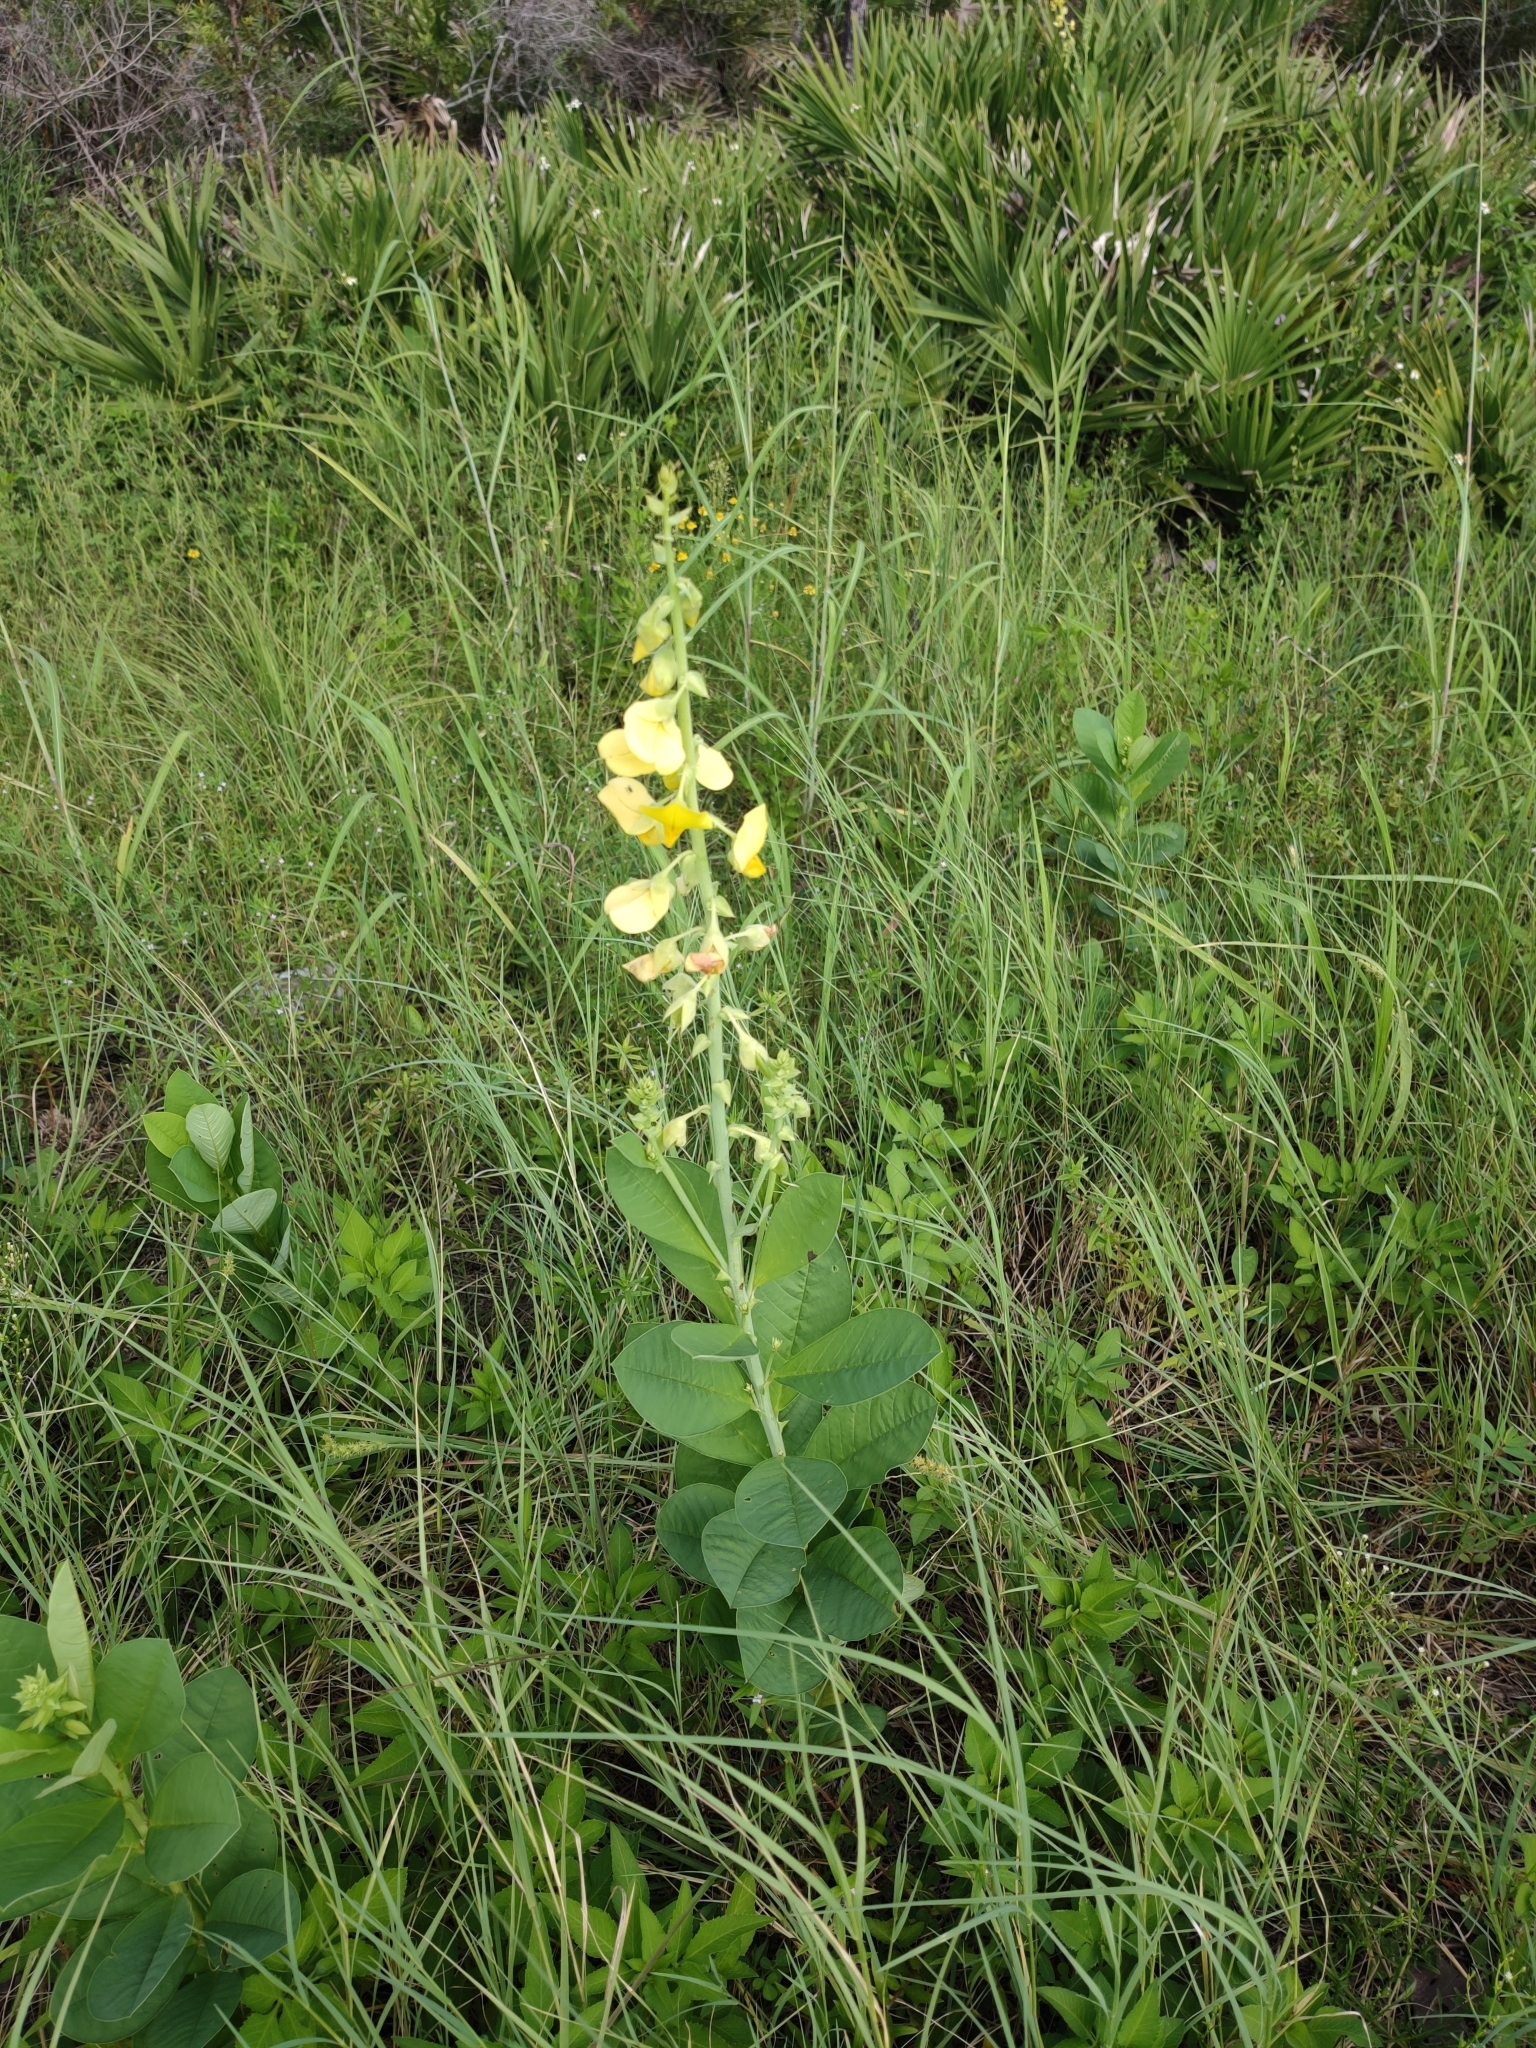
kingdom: Plantae
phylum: Tracheophyta
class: Magnoliopsida
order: Fabales
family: Fabaceae
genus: Crotalaria
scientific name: Crotalaria spectabilis
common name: Showy rattlebox
